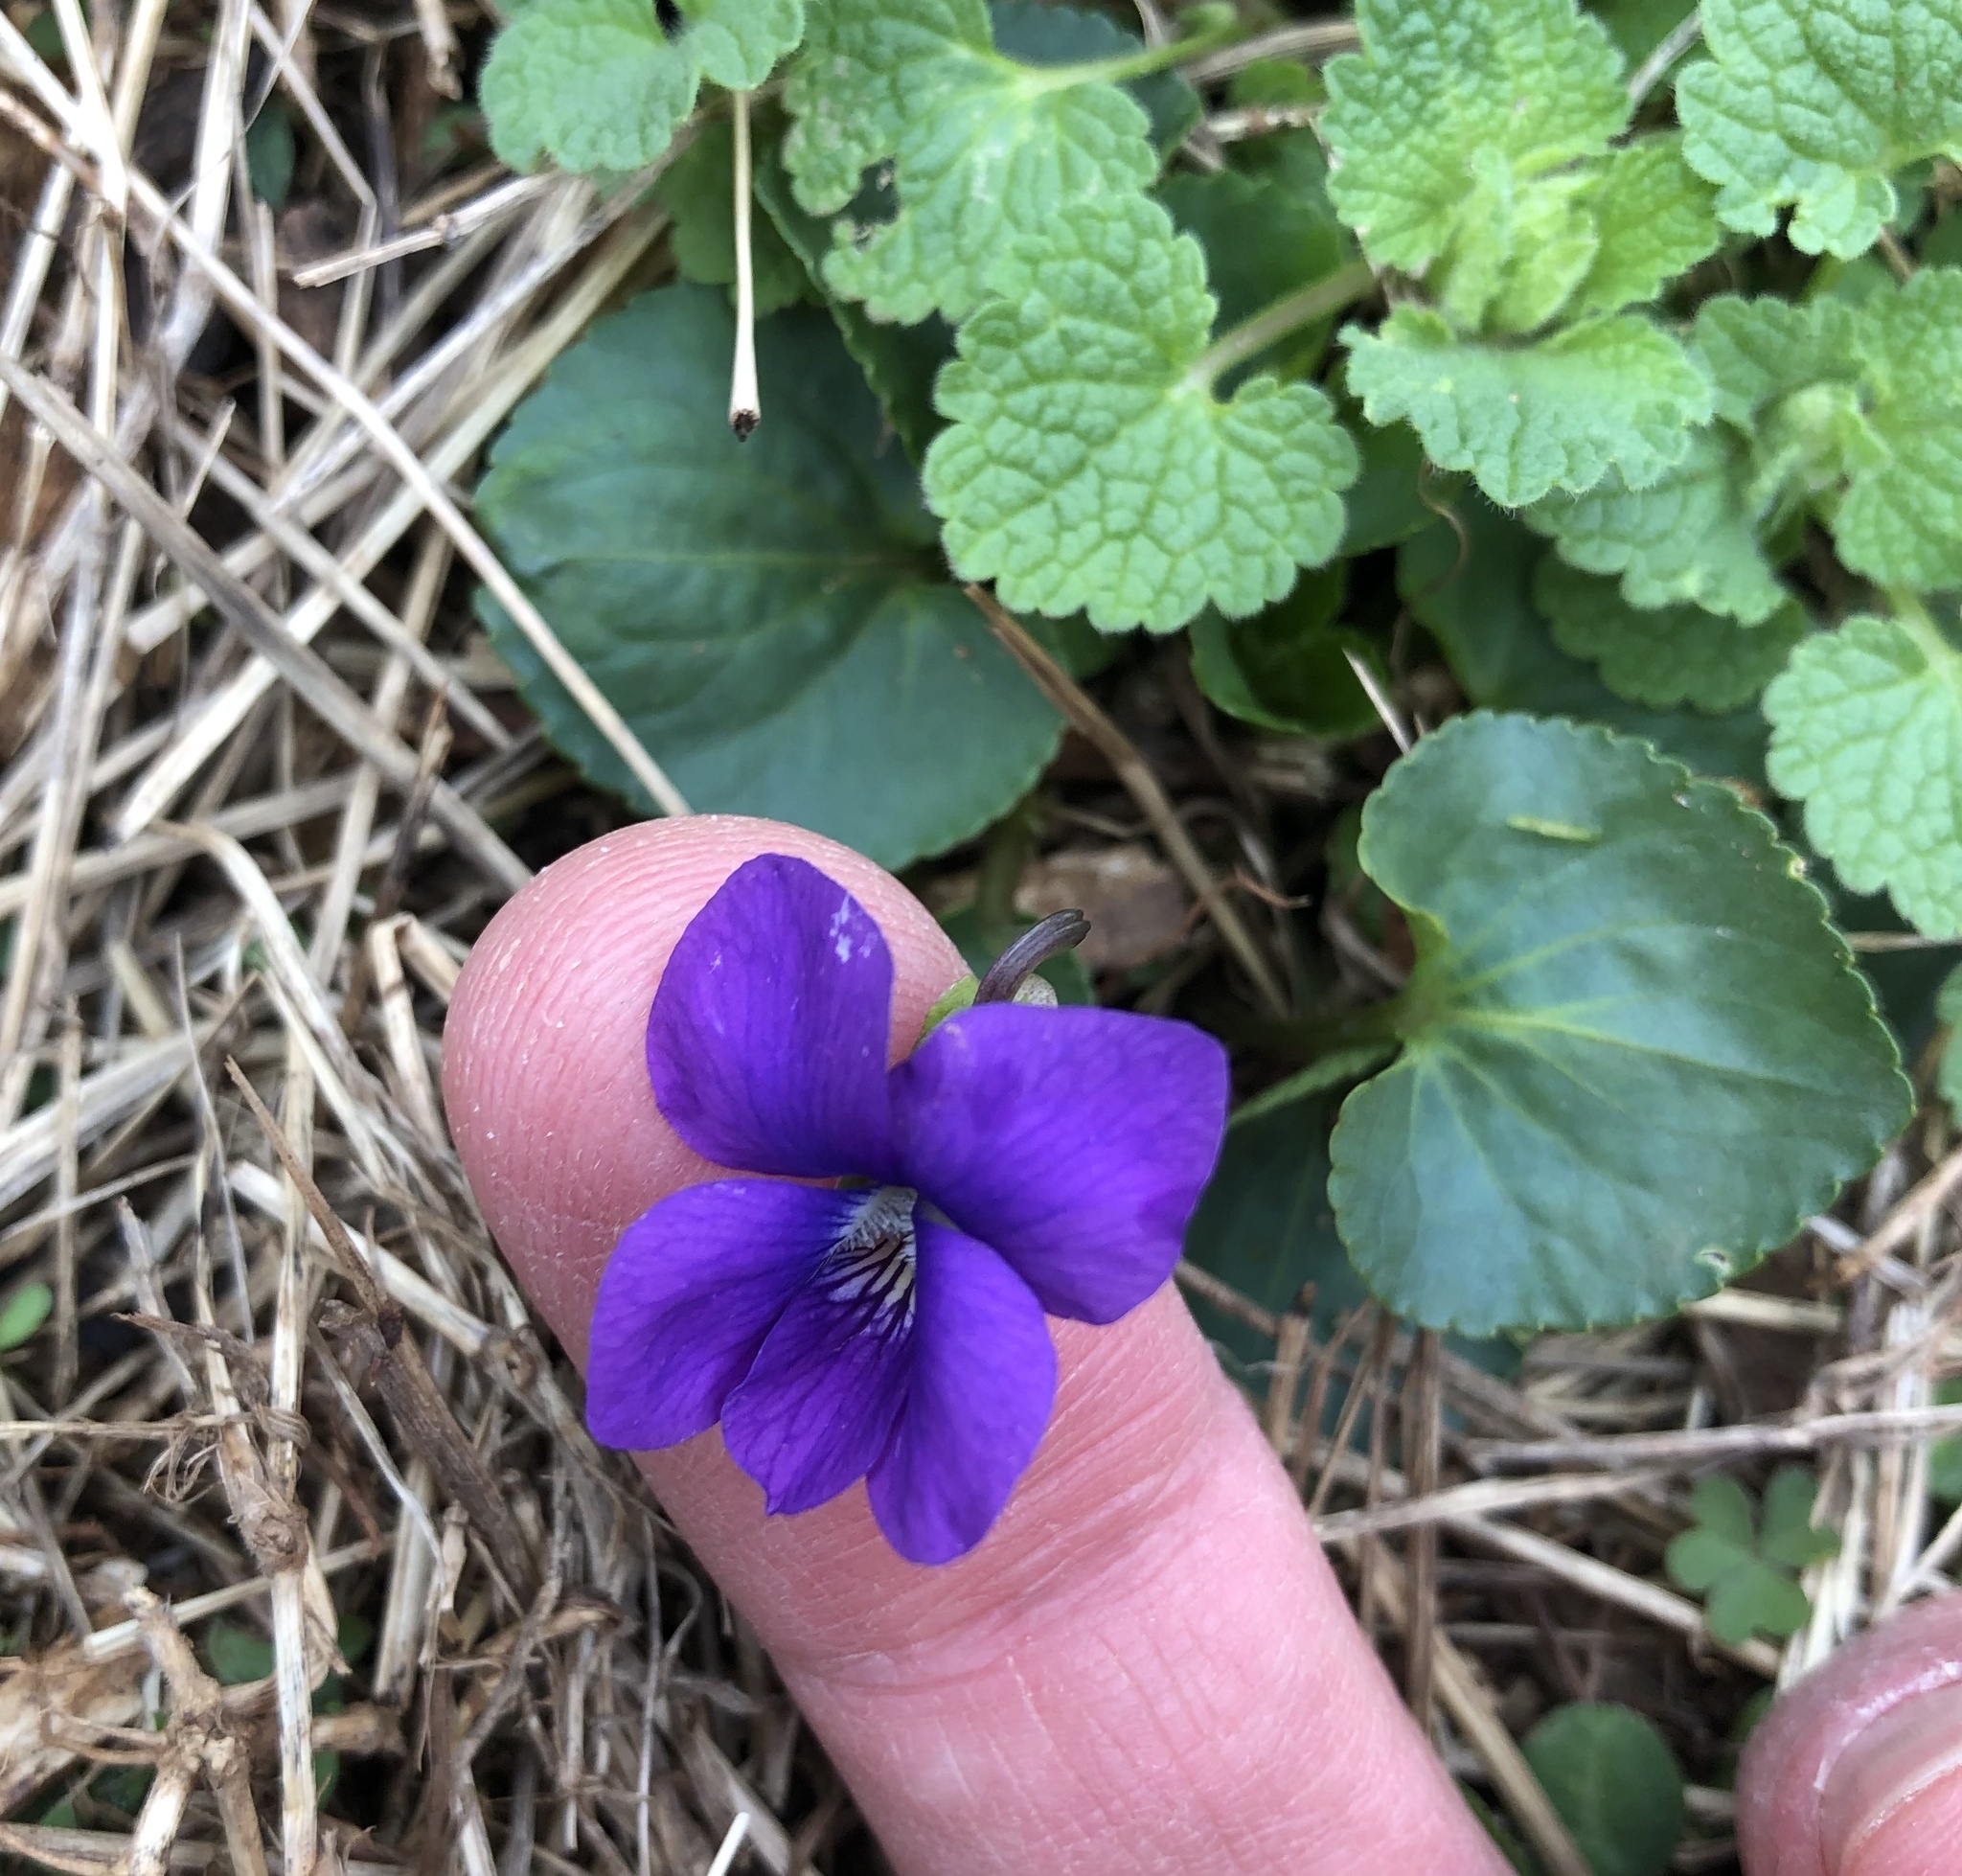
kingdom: Plantae
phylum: Tracheophyta
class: Magnoliopsida
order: Malpighiales
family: Violaceae
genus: Viola
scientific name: Viola sororia
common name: Dooryard violet
